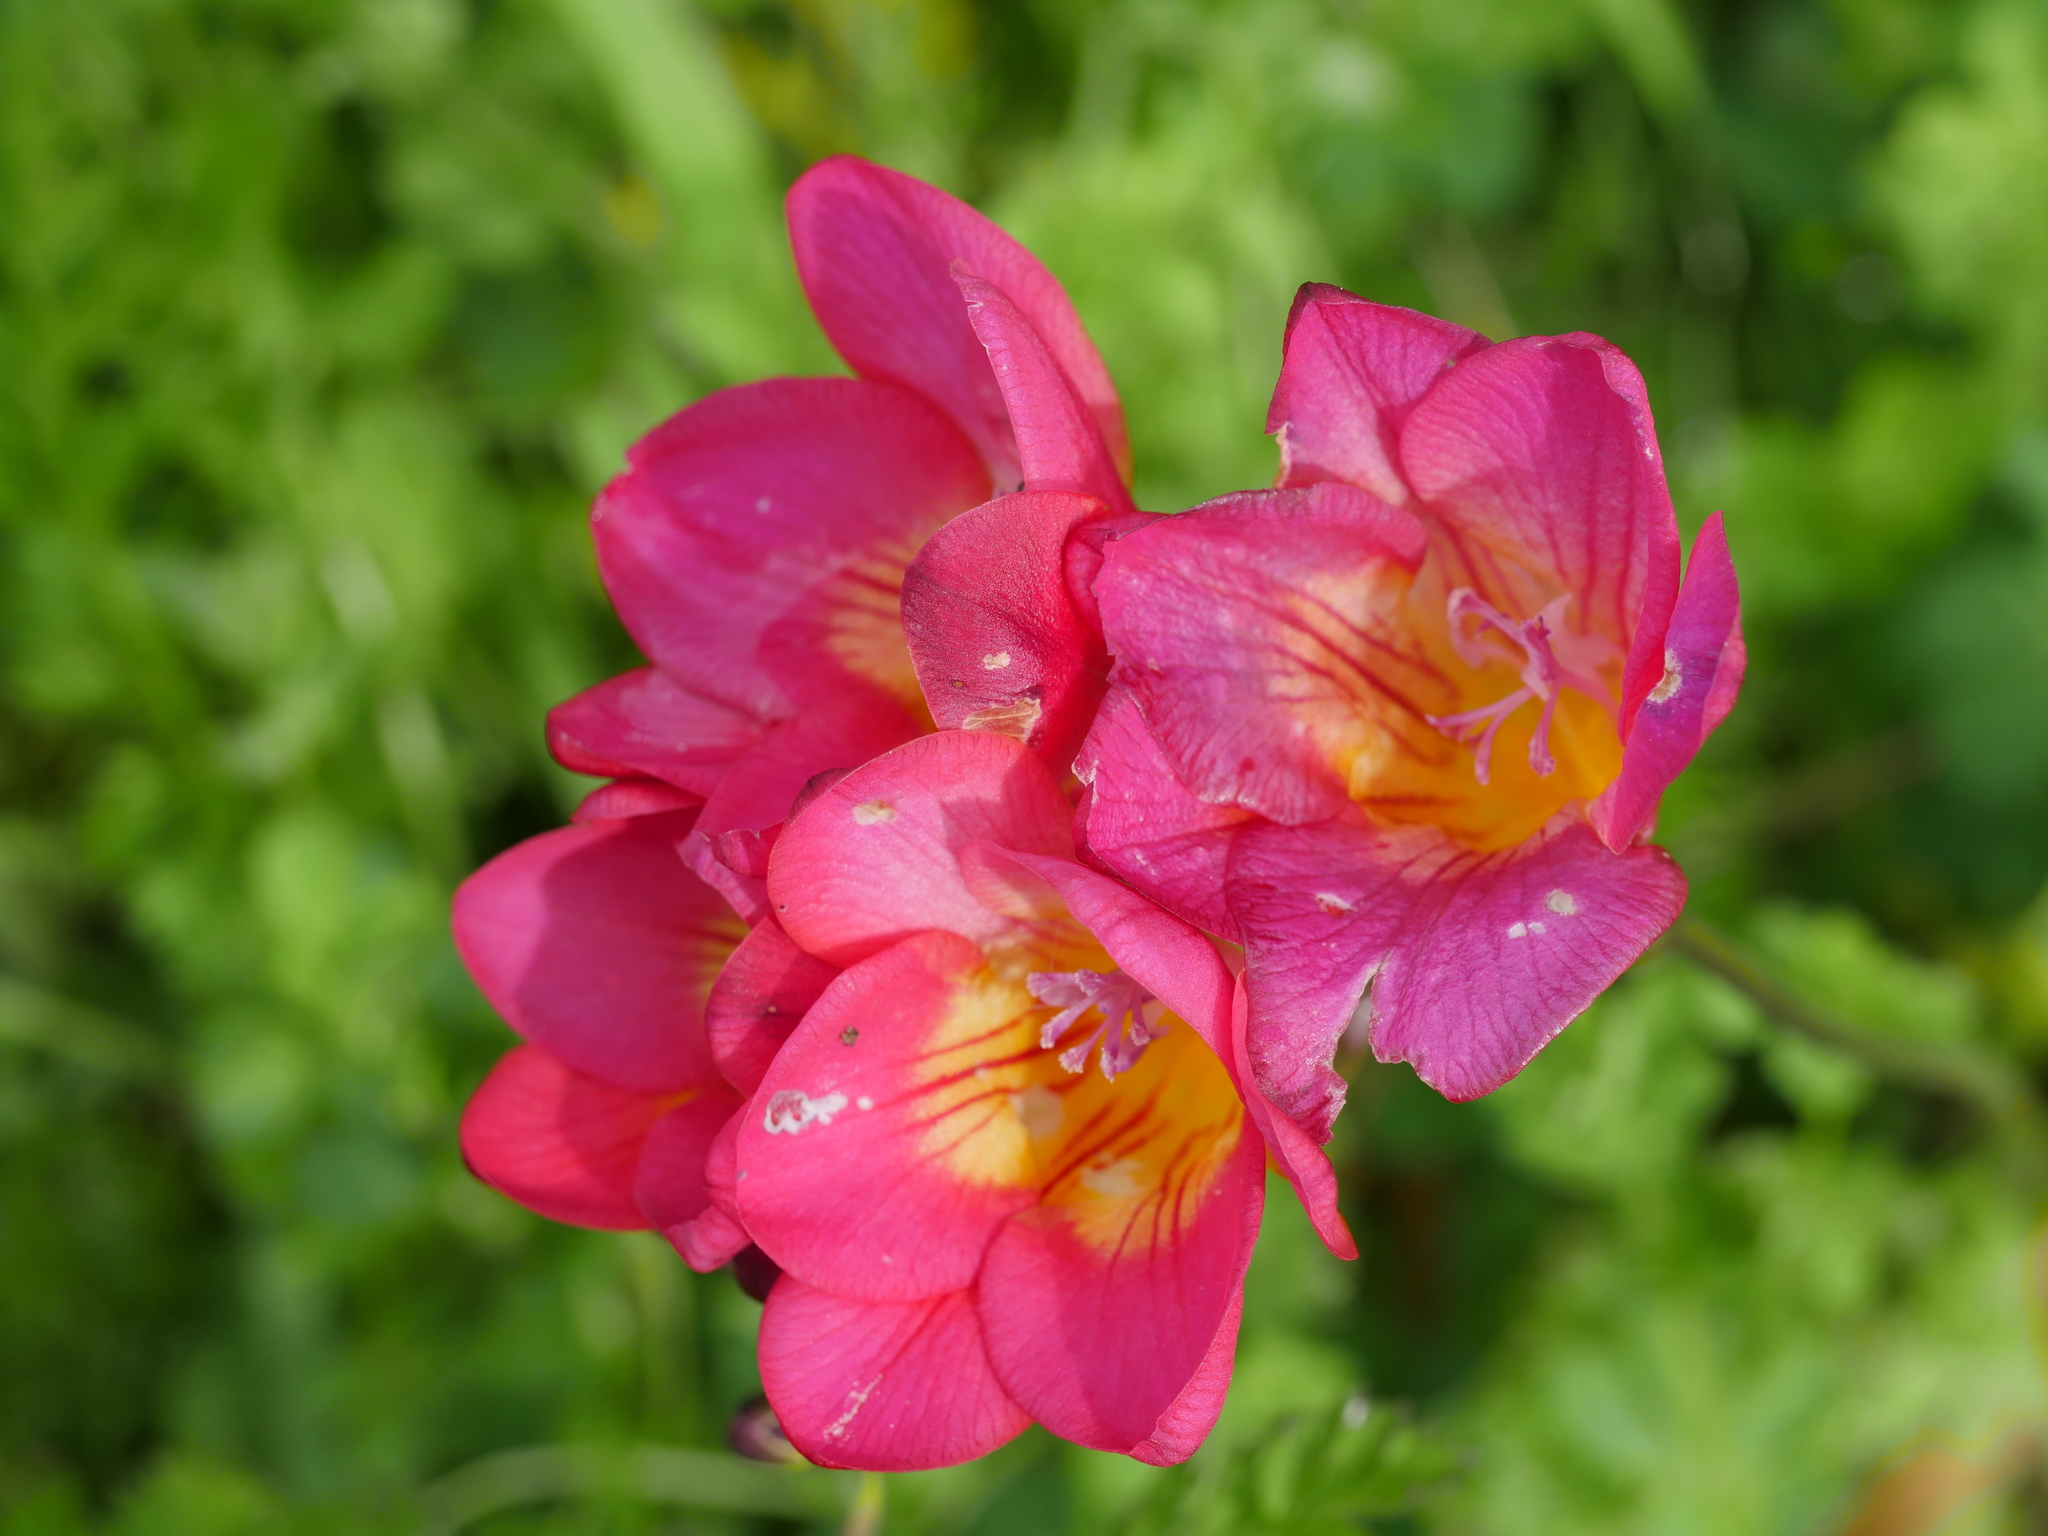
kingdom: Plantae
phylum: Tracheophyta
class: Liliopsida
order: Asparagales
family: Iridaceae
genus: Freesia
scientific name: Freesia
